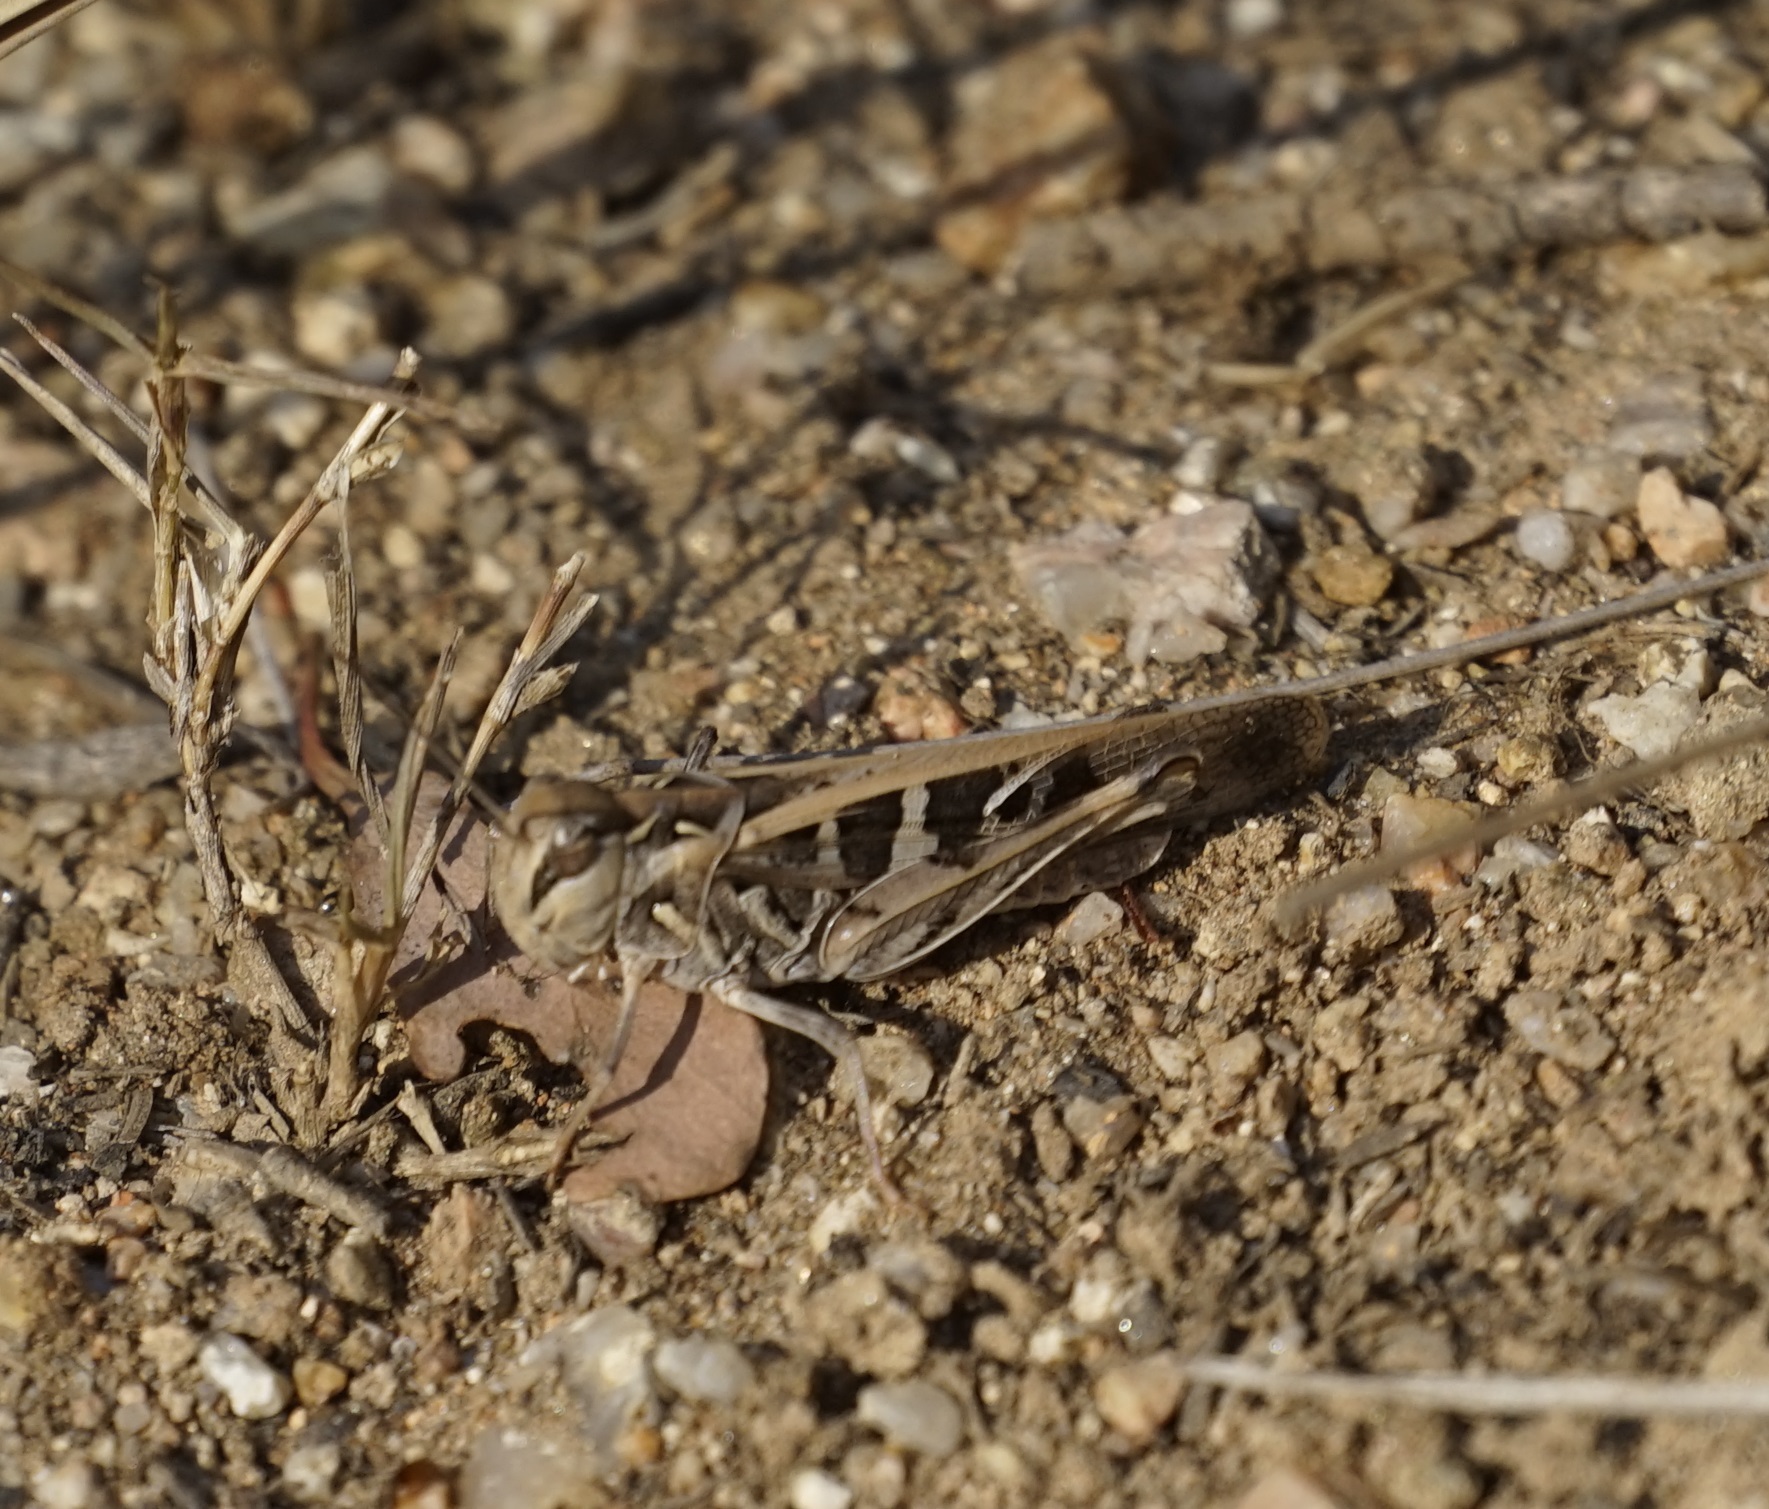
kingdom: Animalia
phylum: Arthropoda
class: Insecta
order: Orthoptera
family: Acrididae
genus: Oedaleus
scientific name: Oedaleus australis
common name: Eastern oedaleus
